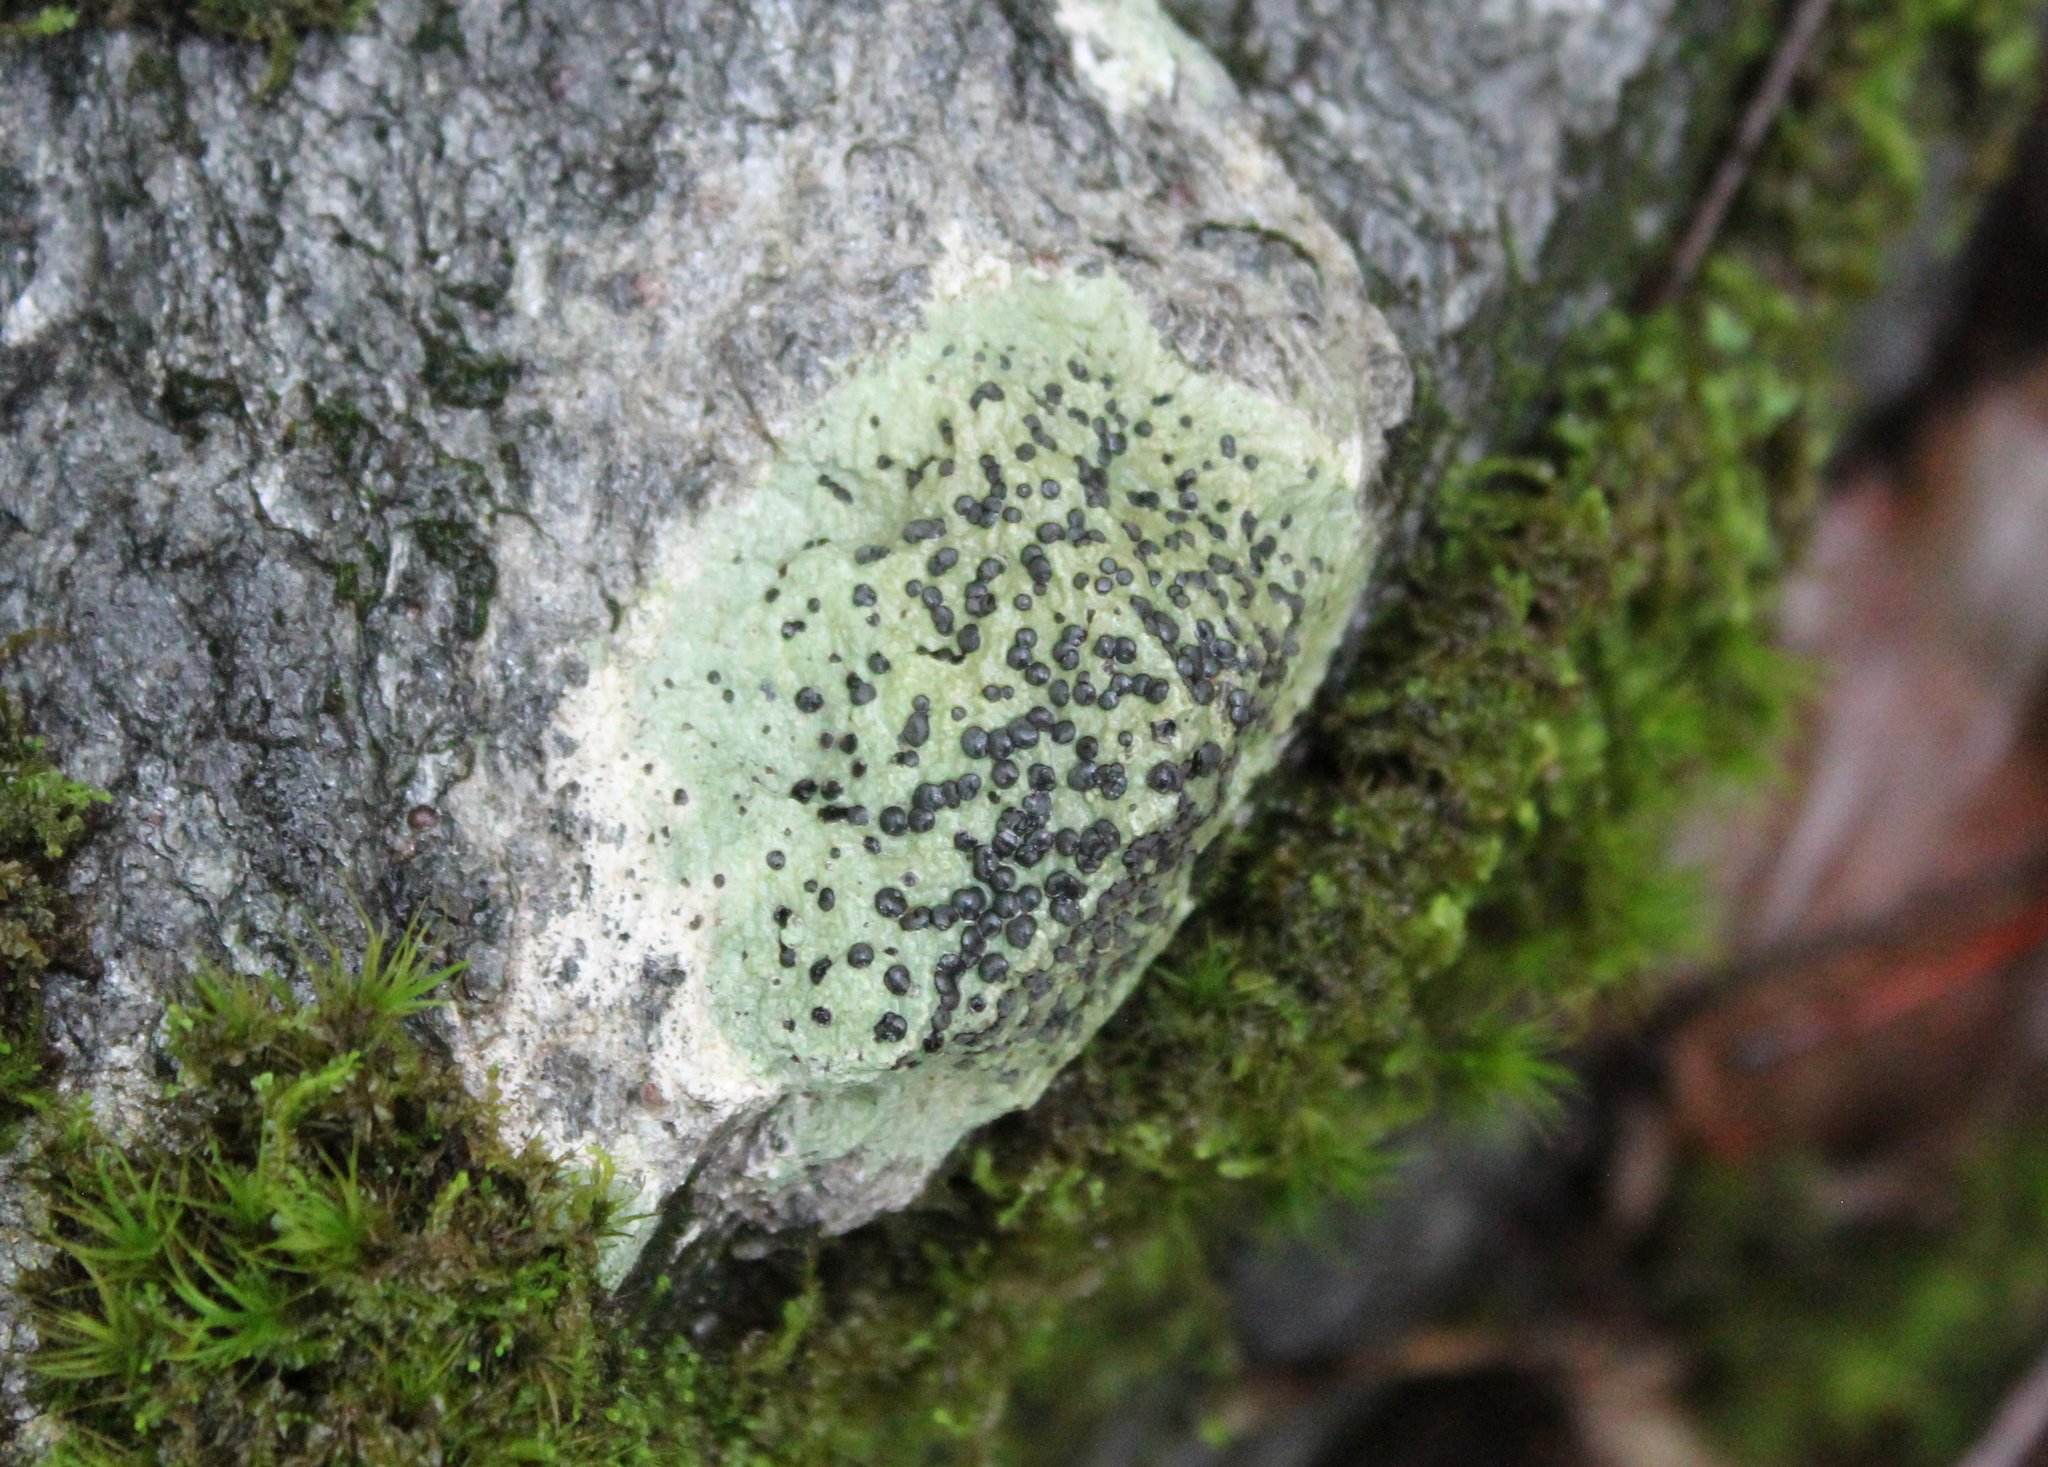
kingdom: Fungi
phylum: Ascomycota
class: Lecanoromycetes
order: Lecideales
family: Lecideaceae
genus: Porpidia
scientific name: Porpidia albocaerulescens
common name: Smokey-eyed boulder lichen
